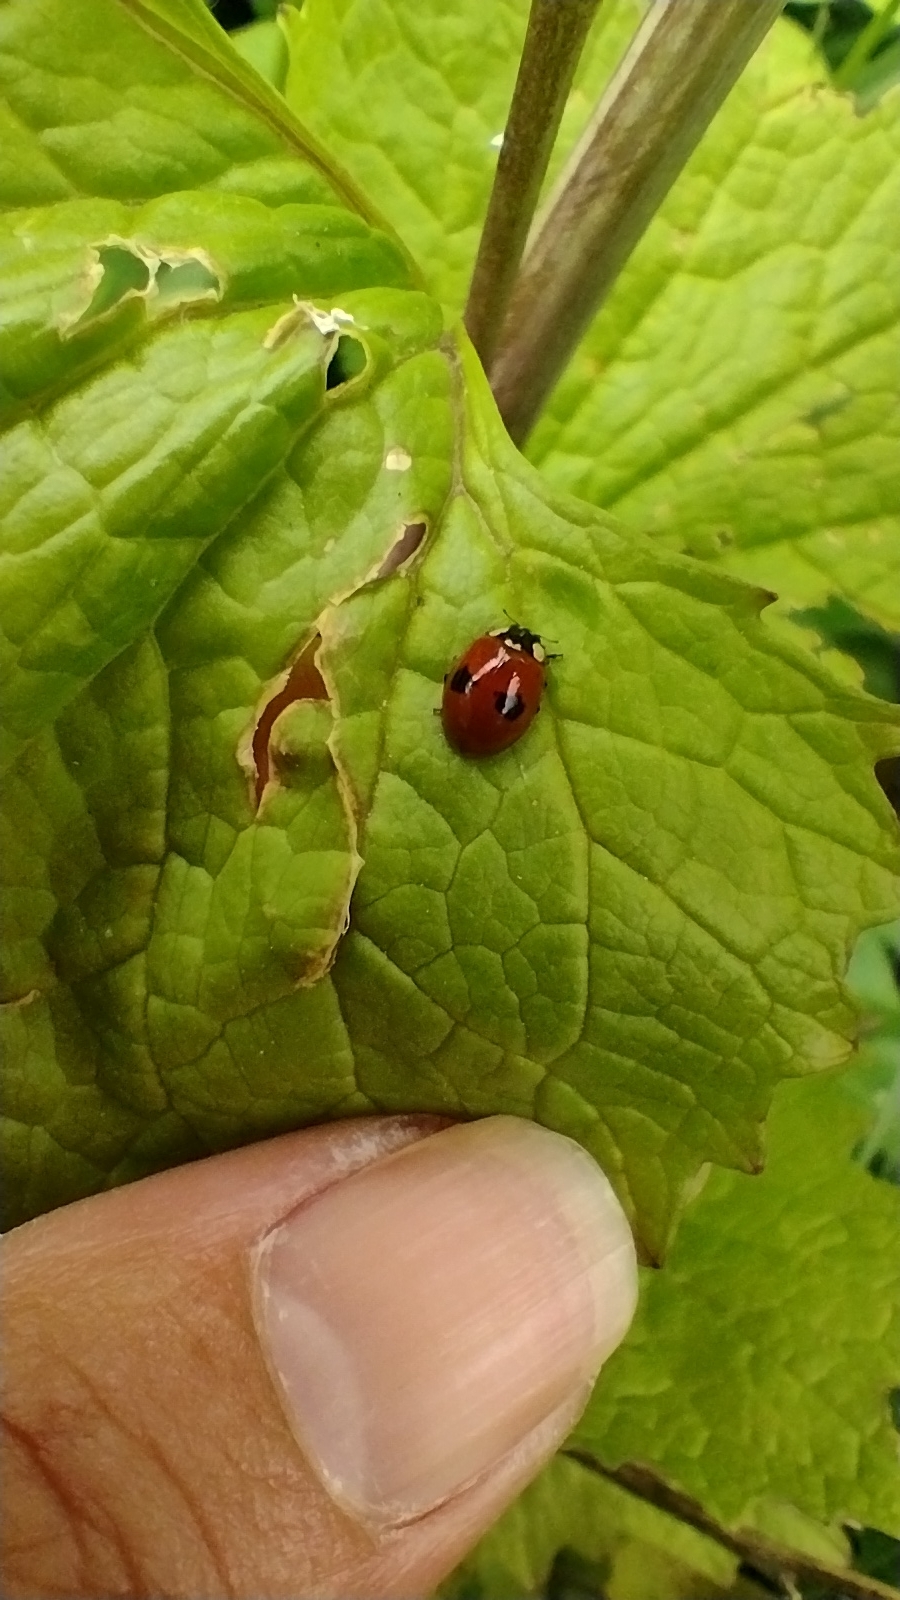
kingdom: Animalia
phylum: Arthropoda
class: Insecta
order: Coleoptera
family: Coccinellidae
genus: Adalia
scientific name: Adalia bipunctata
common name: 2-spot ladybird
